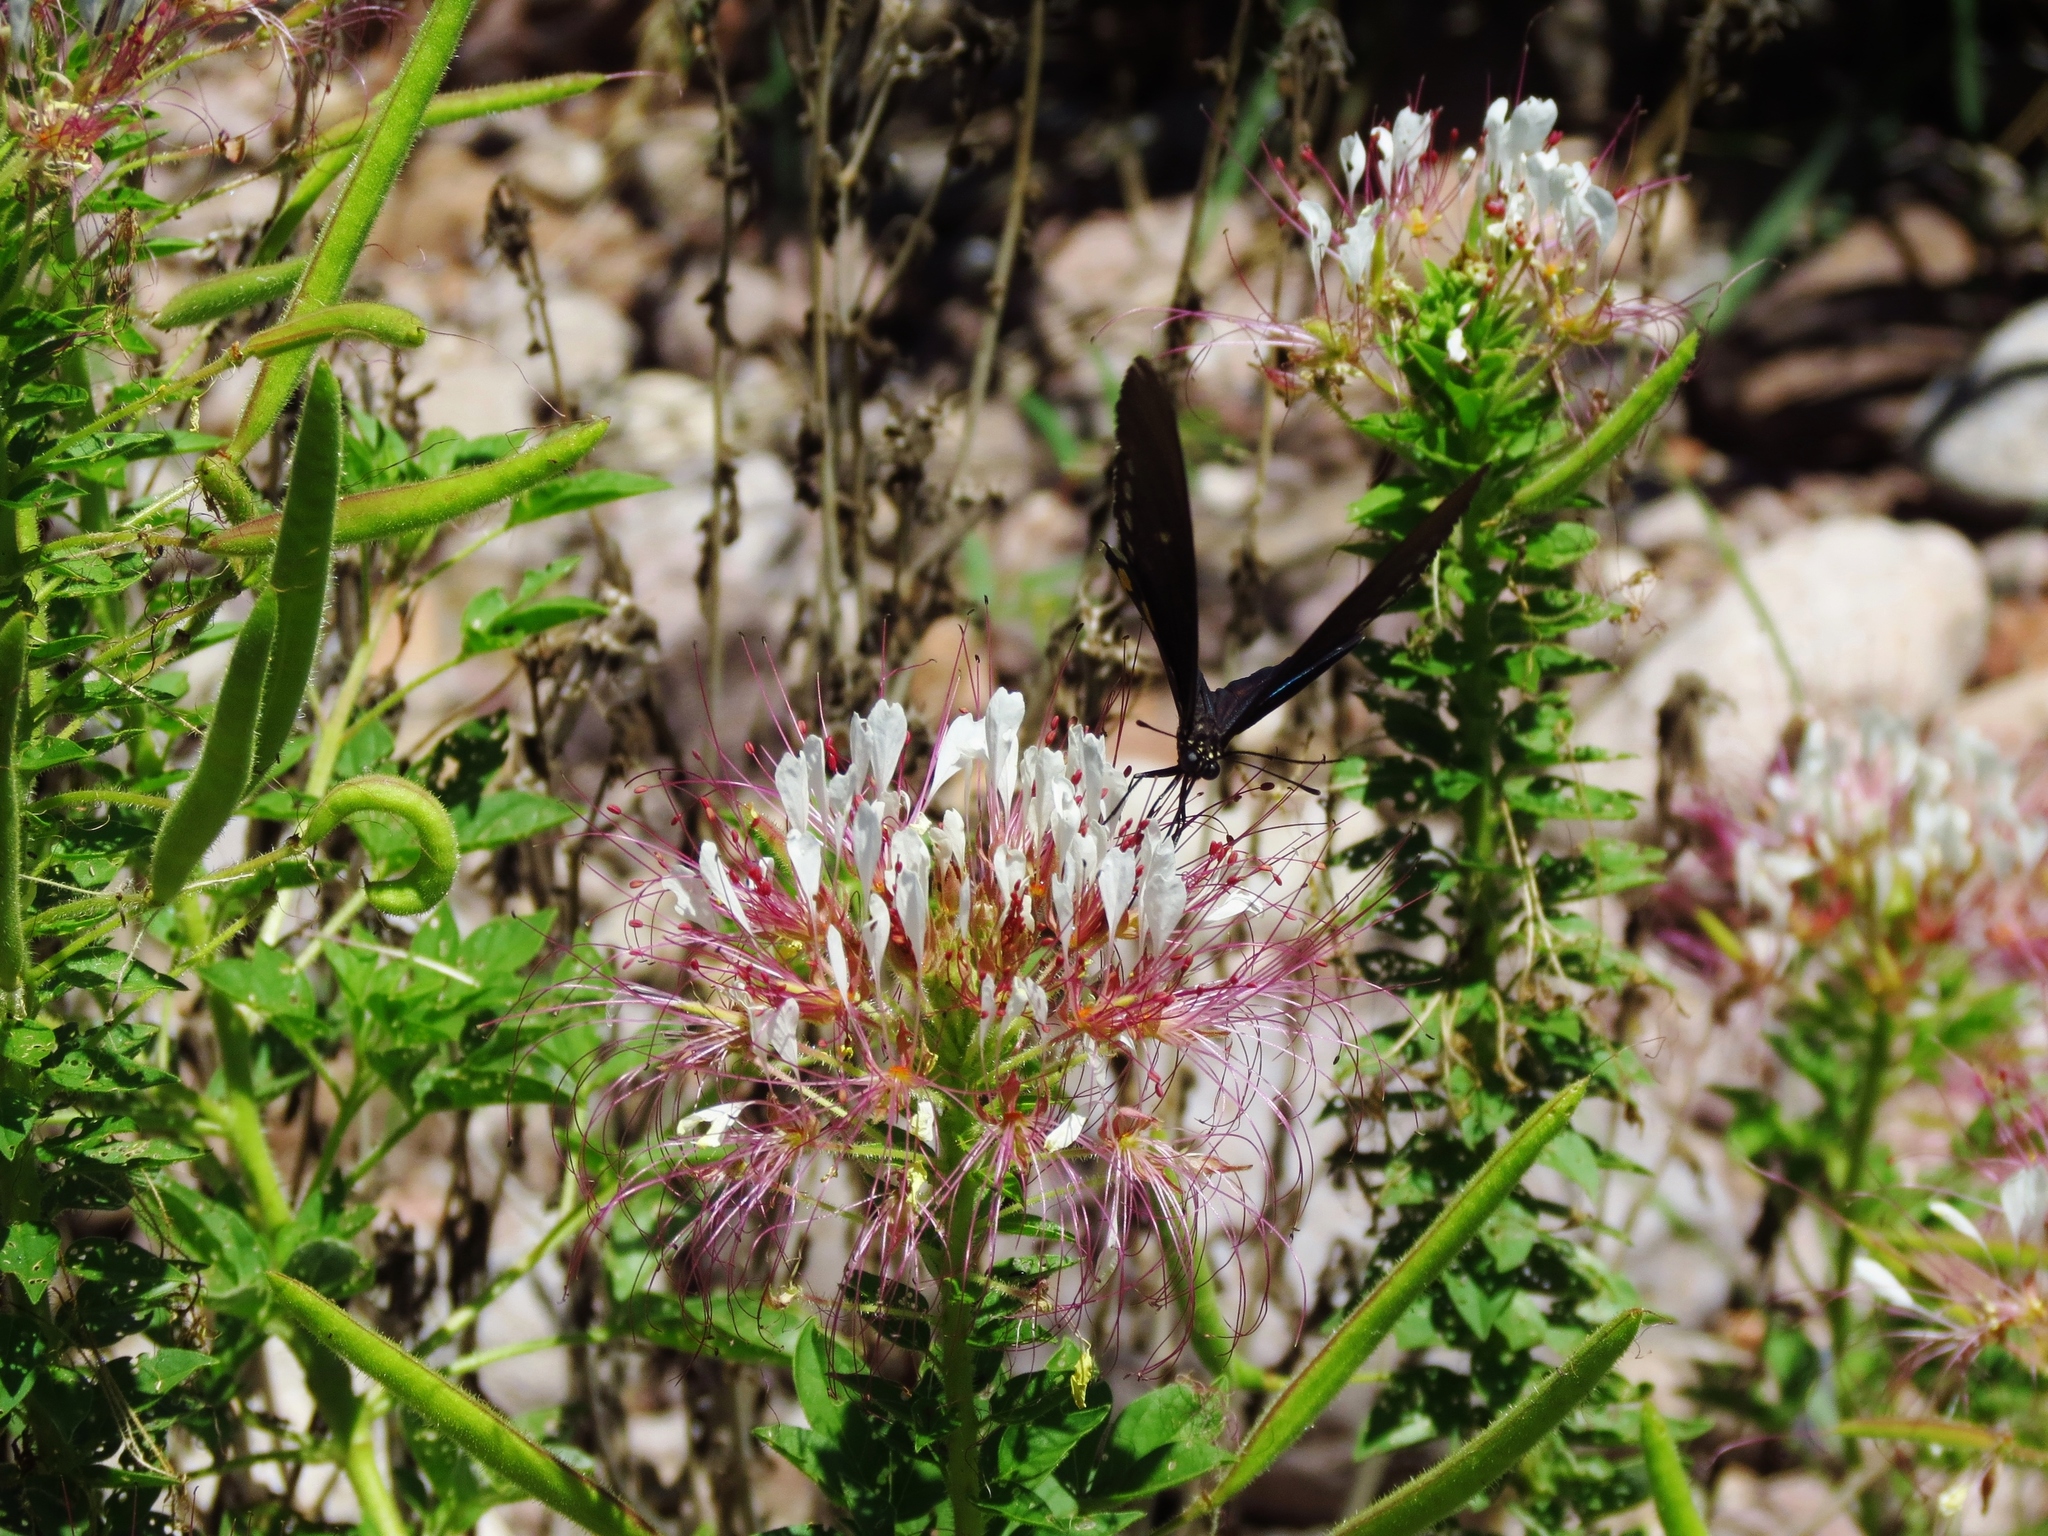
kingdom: Plantae
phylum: Tracheophyta
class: Magnoliopsida
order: Brassicales
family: Cleomaceae
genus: Polanisia
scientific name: Polanisia dodecandra
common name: Clammyweed
